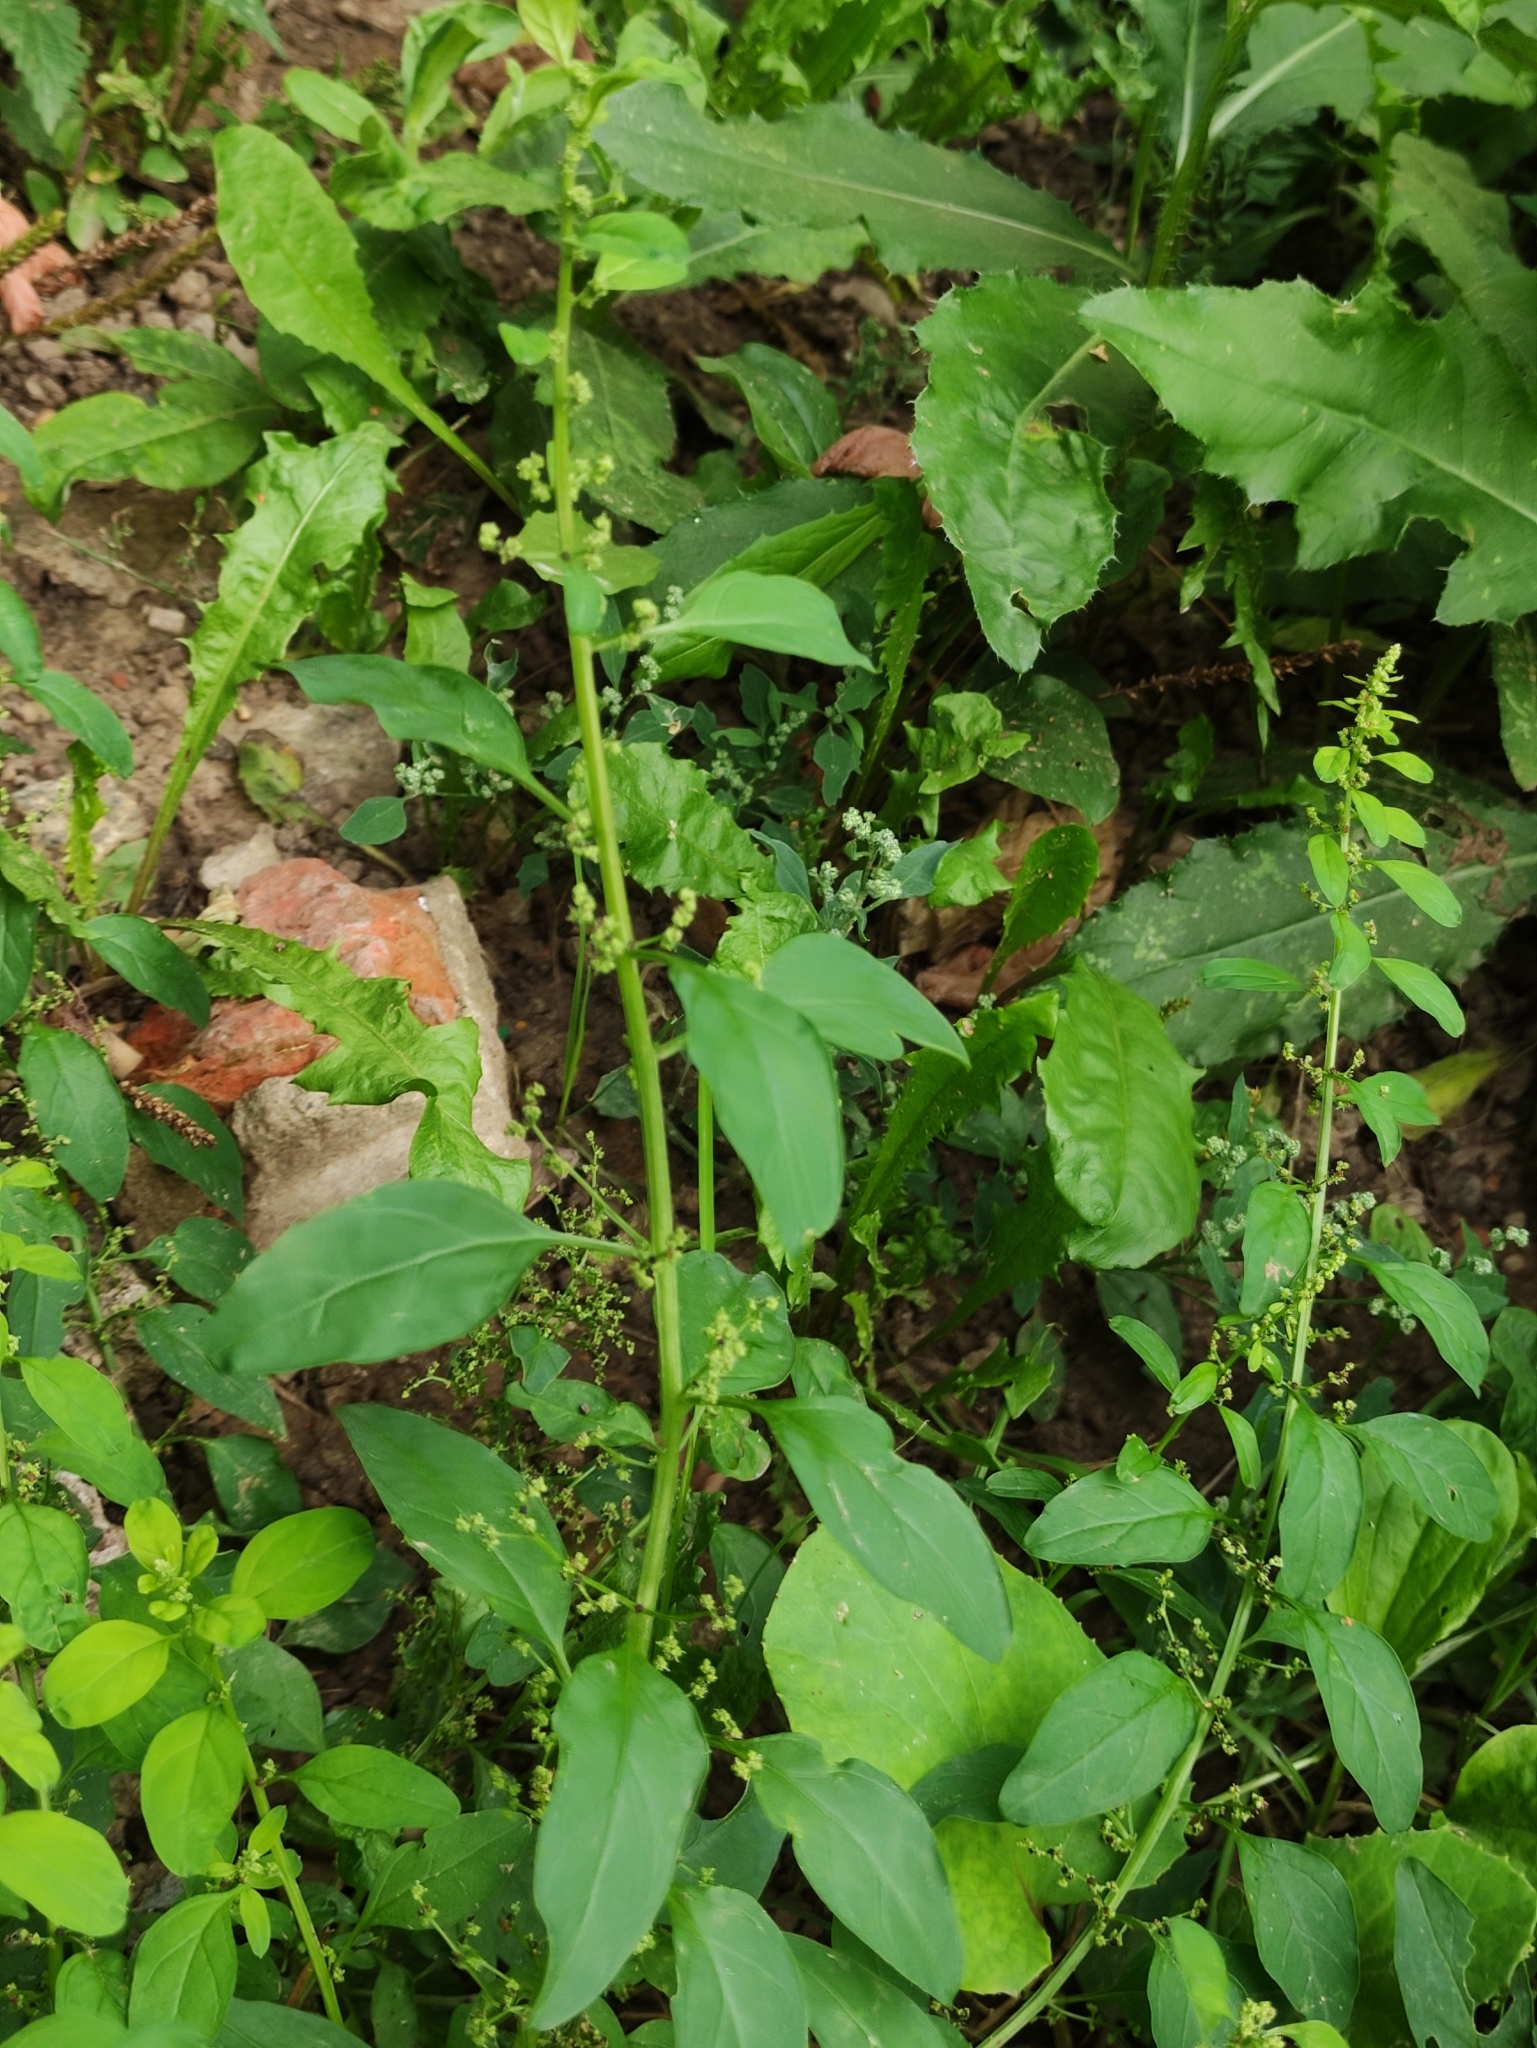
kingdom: Plantae
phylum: Tracheophyta
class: Magnoliopsida
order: Caryophyllales
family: Amaranthaceae
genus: Lipandra
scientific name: Lipandra polysperma
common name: Many-seed goosefoot
